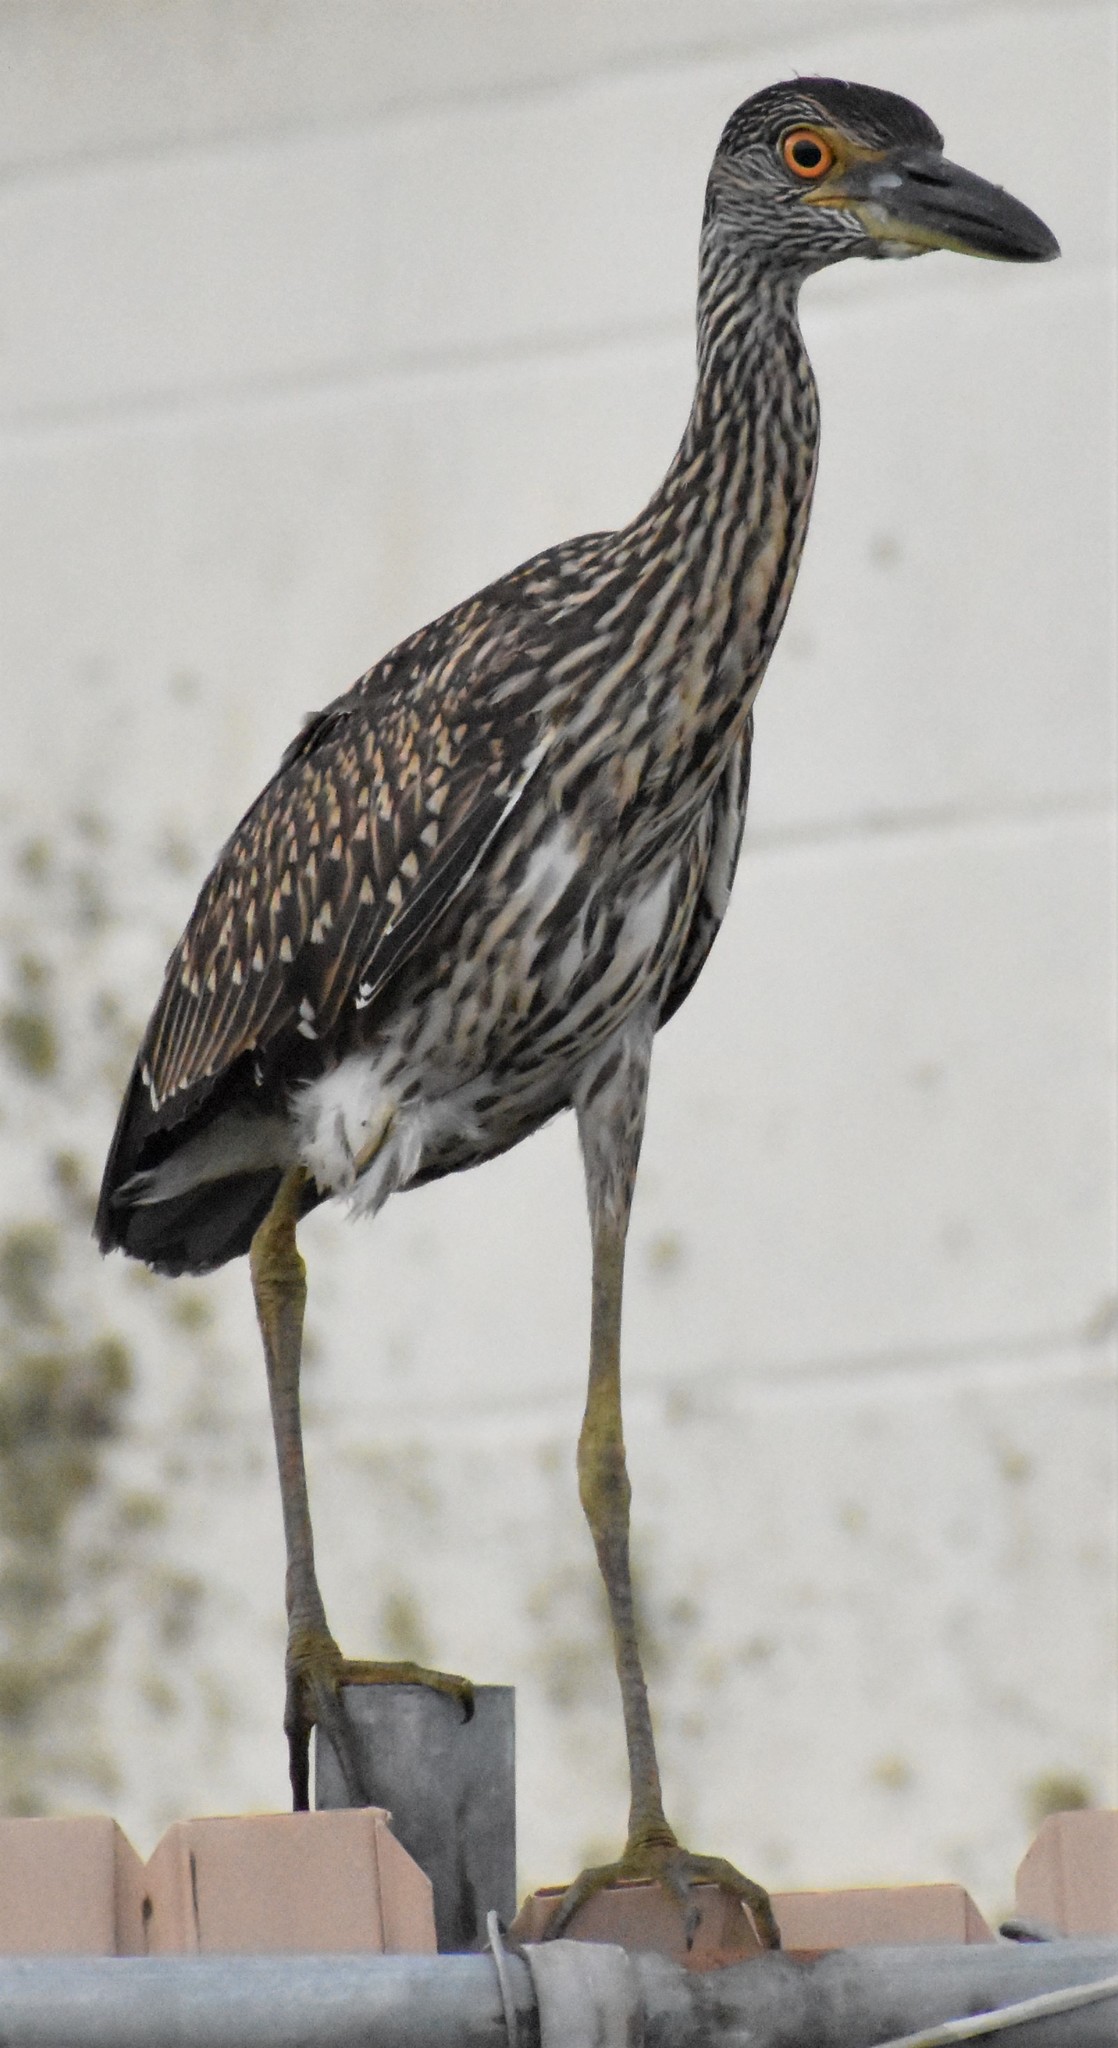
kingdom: Animalia
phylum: Chordata
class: Aves
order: Pelecaniformes
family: Ardeidae
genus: Nyctanassa
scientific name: Nyctanassa violacea
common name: Yellow-crowned night heron
